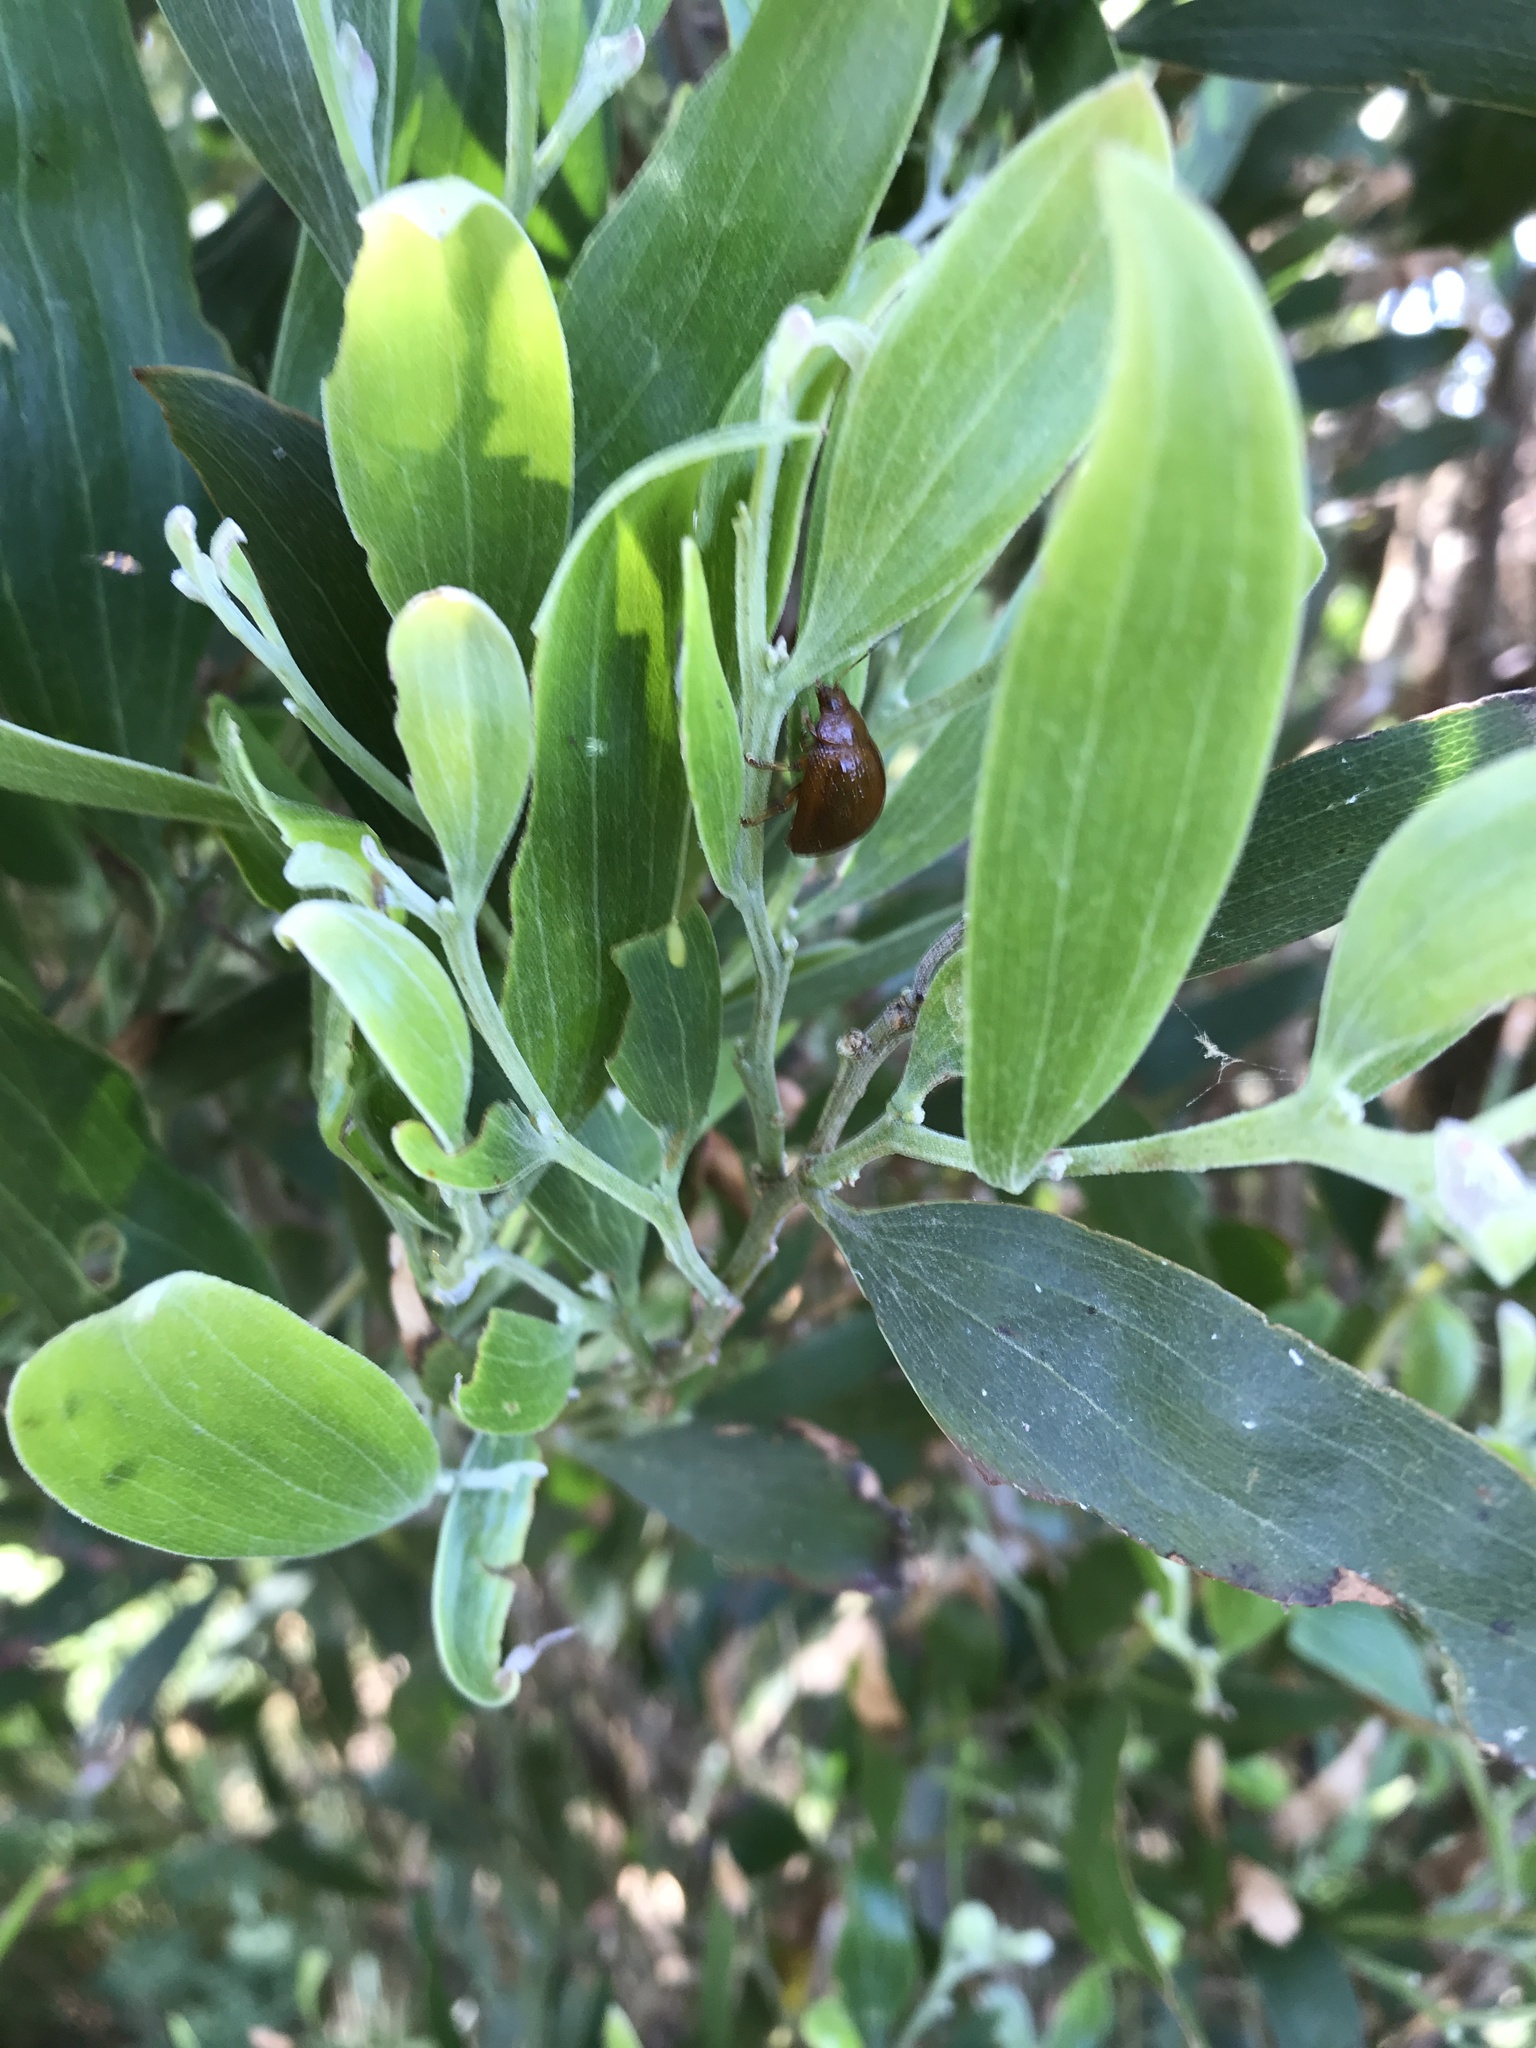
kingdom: Animalia
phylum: Arthropoda
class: Insecta
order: Coleoptera
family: Chrysomelidae
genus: Dicranosterna
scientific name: Dicranosterna
